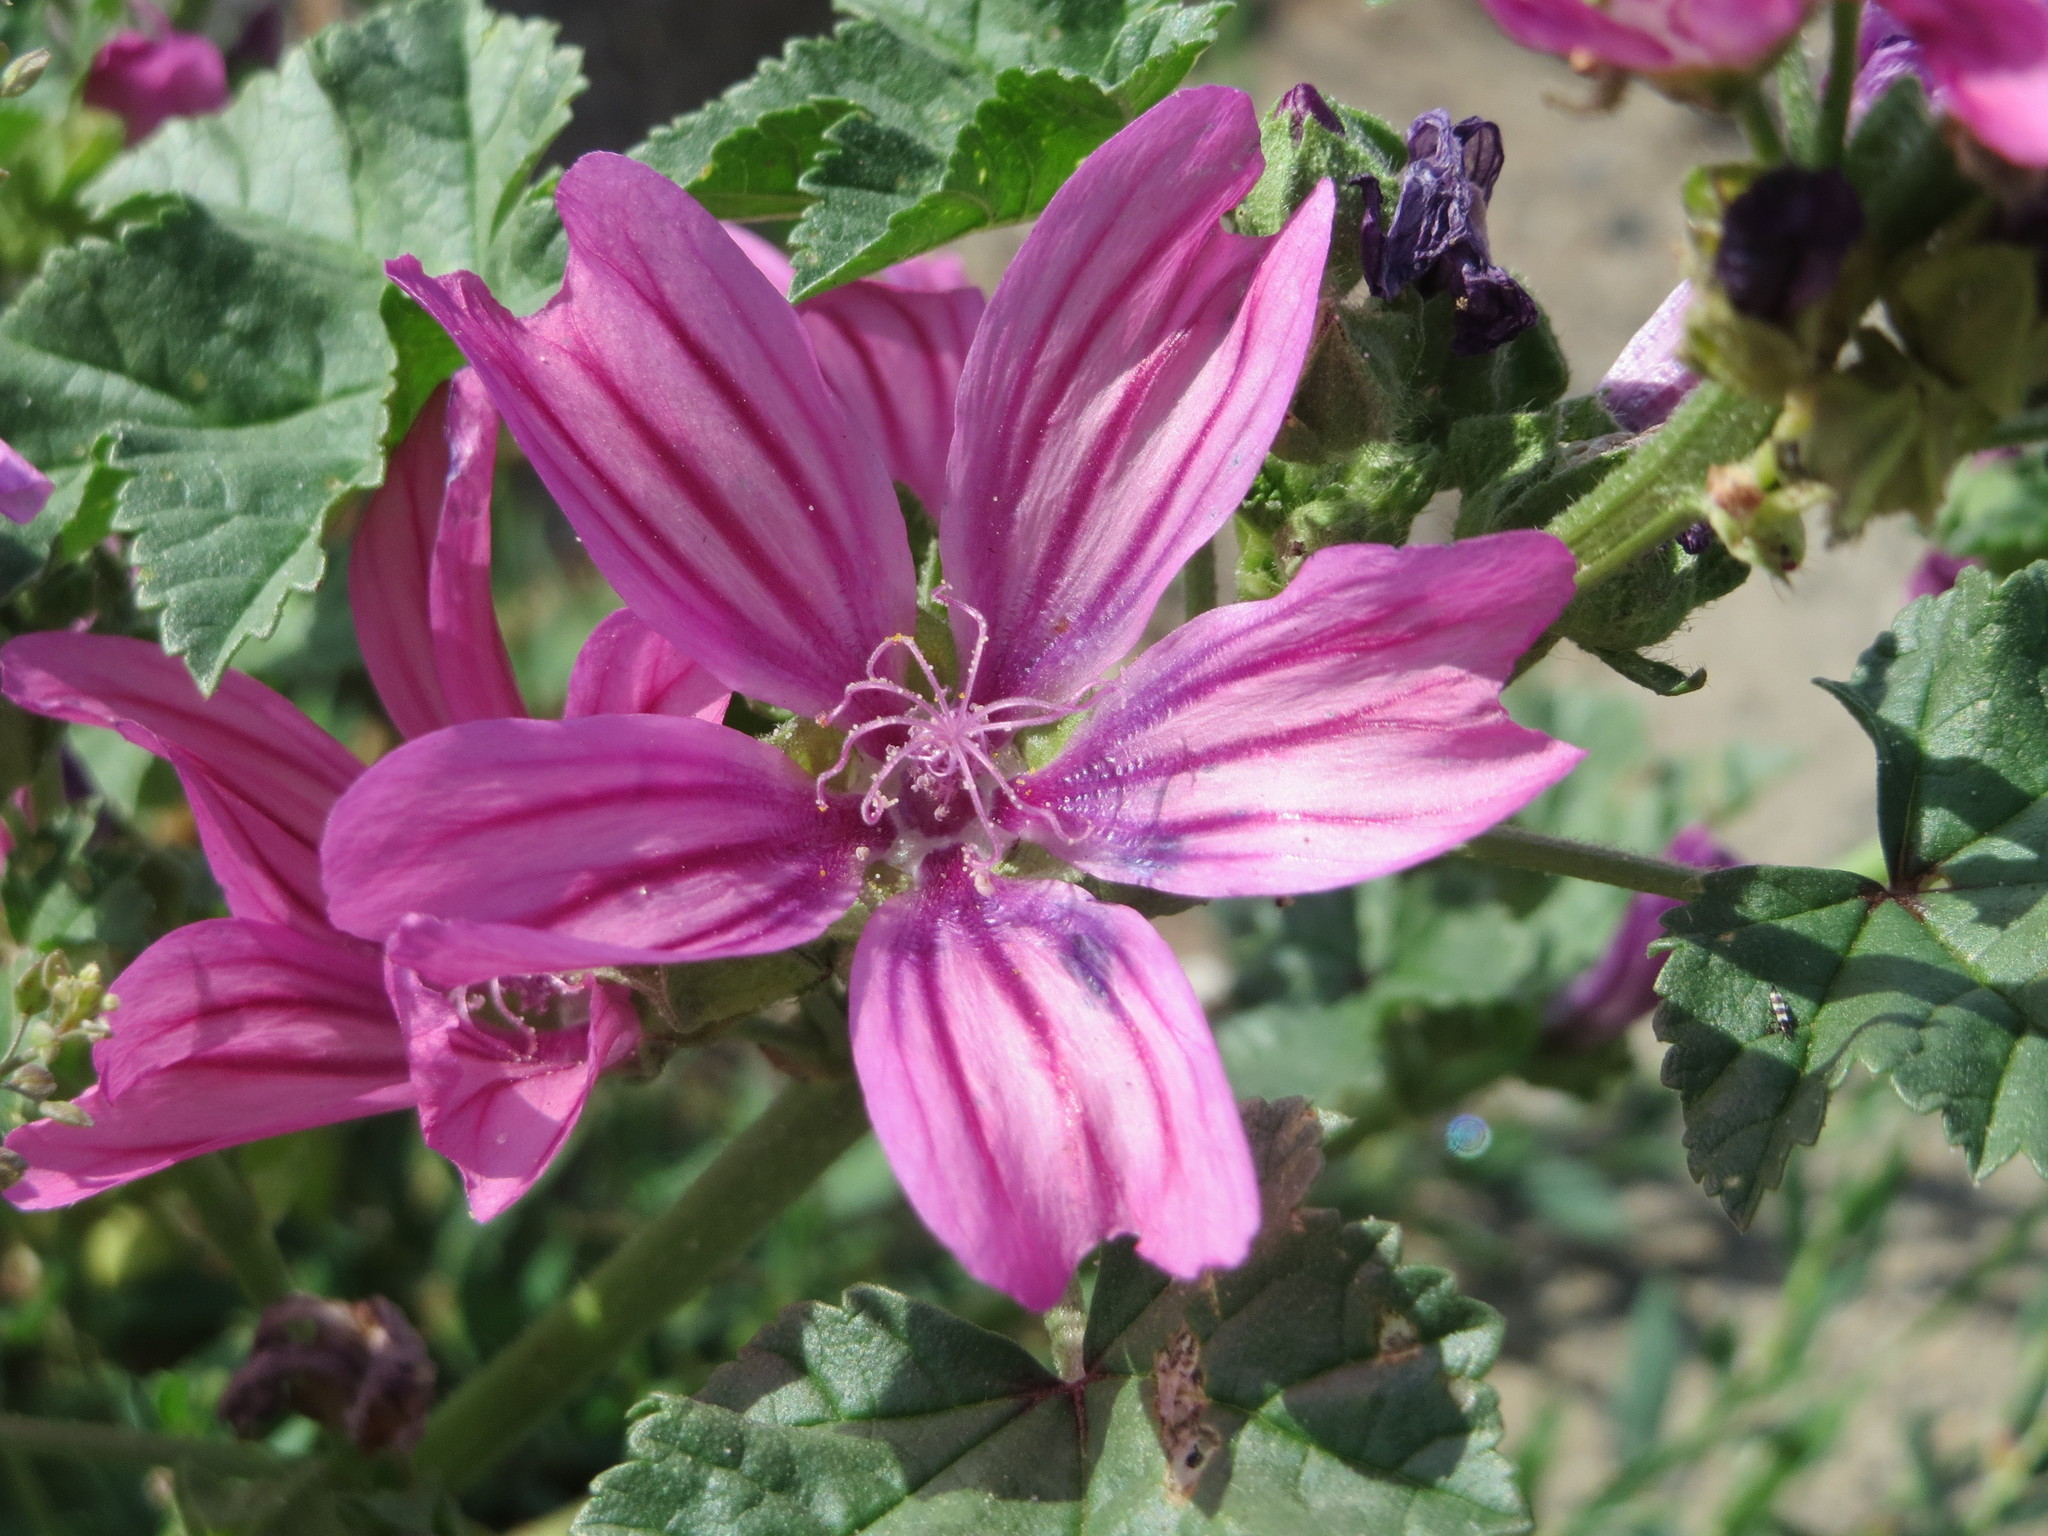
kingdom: Plantae
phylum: Tracheophyta
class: Magnoliopsida
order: Malvales
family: Malvaceae
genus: Malva
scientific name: Malva sylvestris
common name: Common mallow
